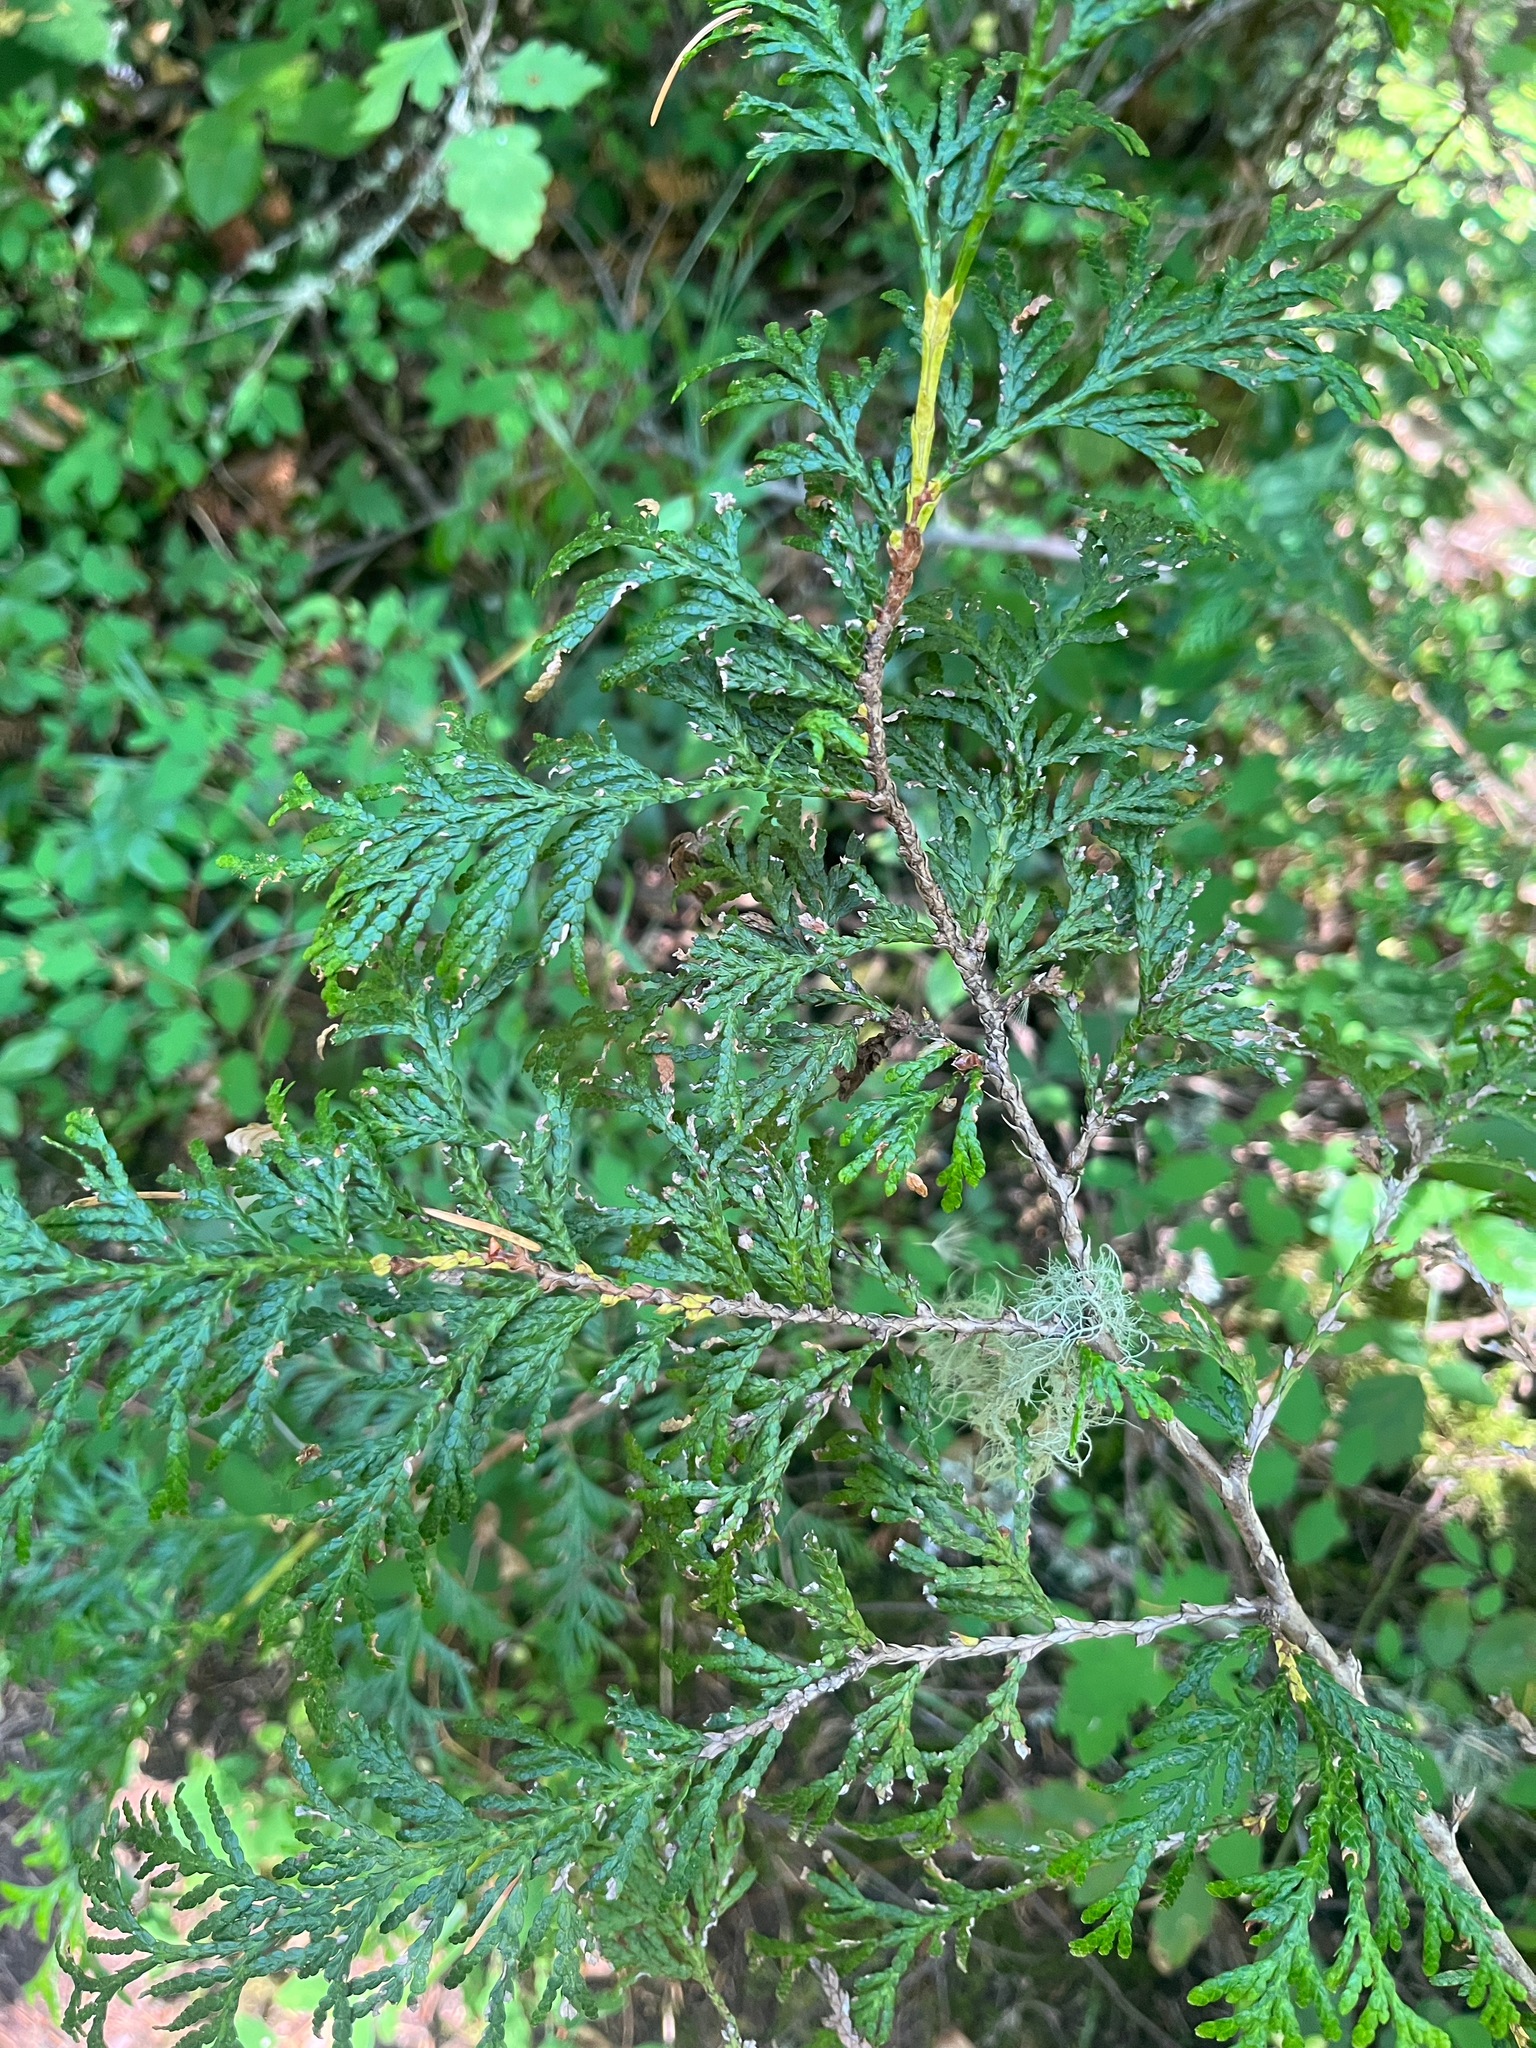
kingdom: Plantae
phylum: Tracheophyta
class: Pinopsida
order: Pinales
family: Cupressaceae
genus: Thuja
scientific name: Thuja plicata
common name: Western red-cedar
